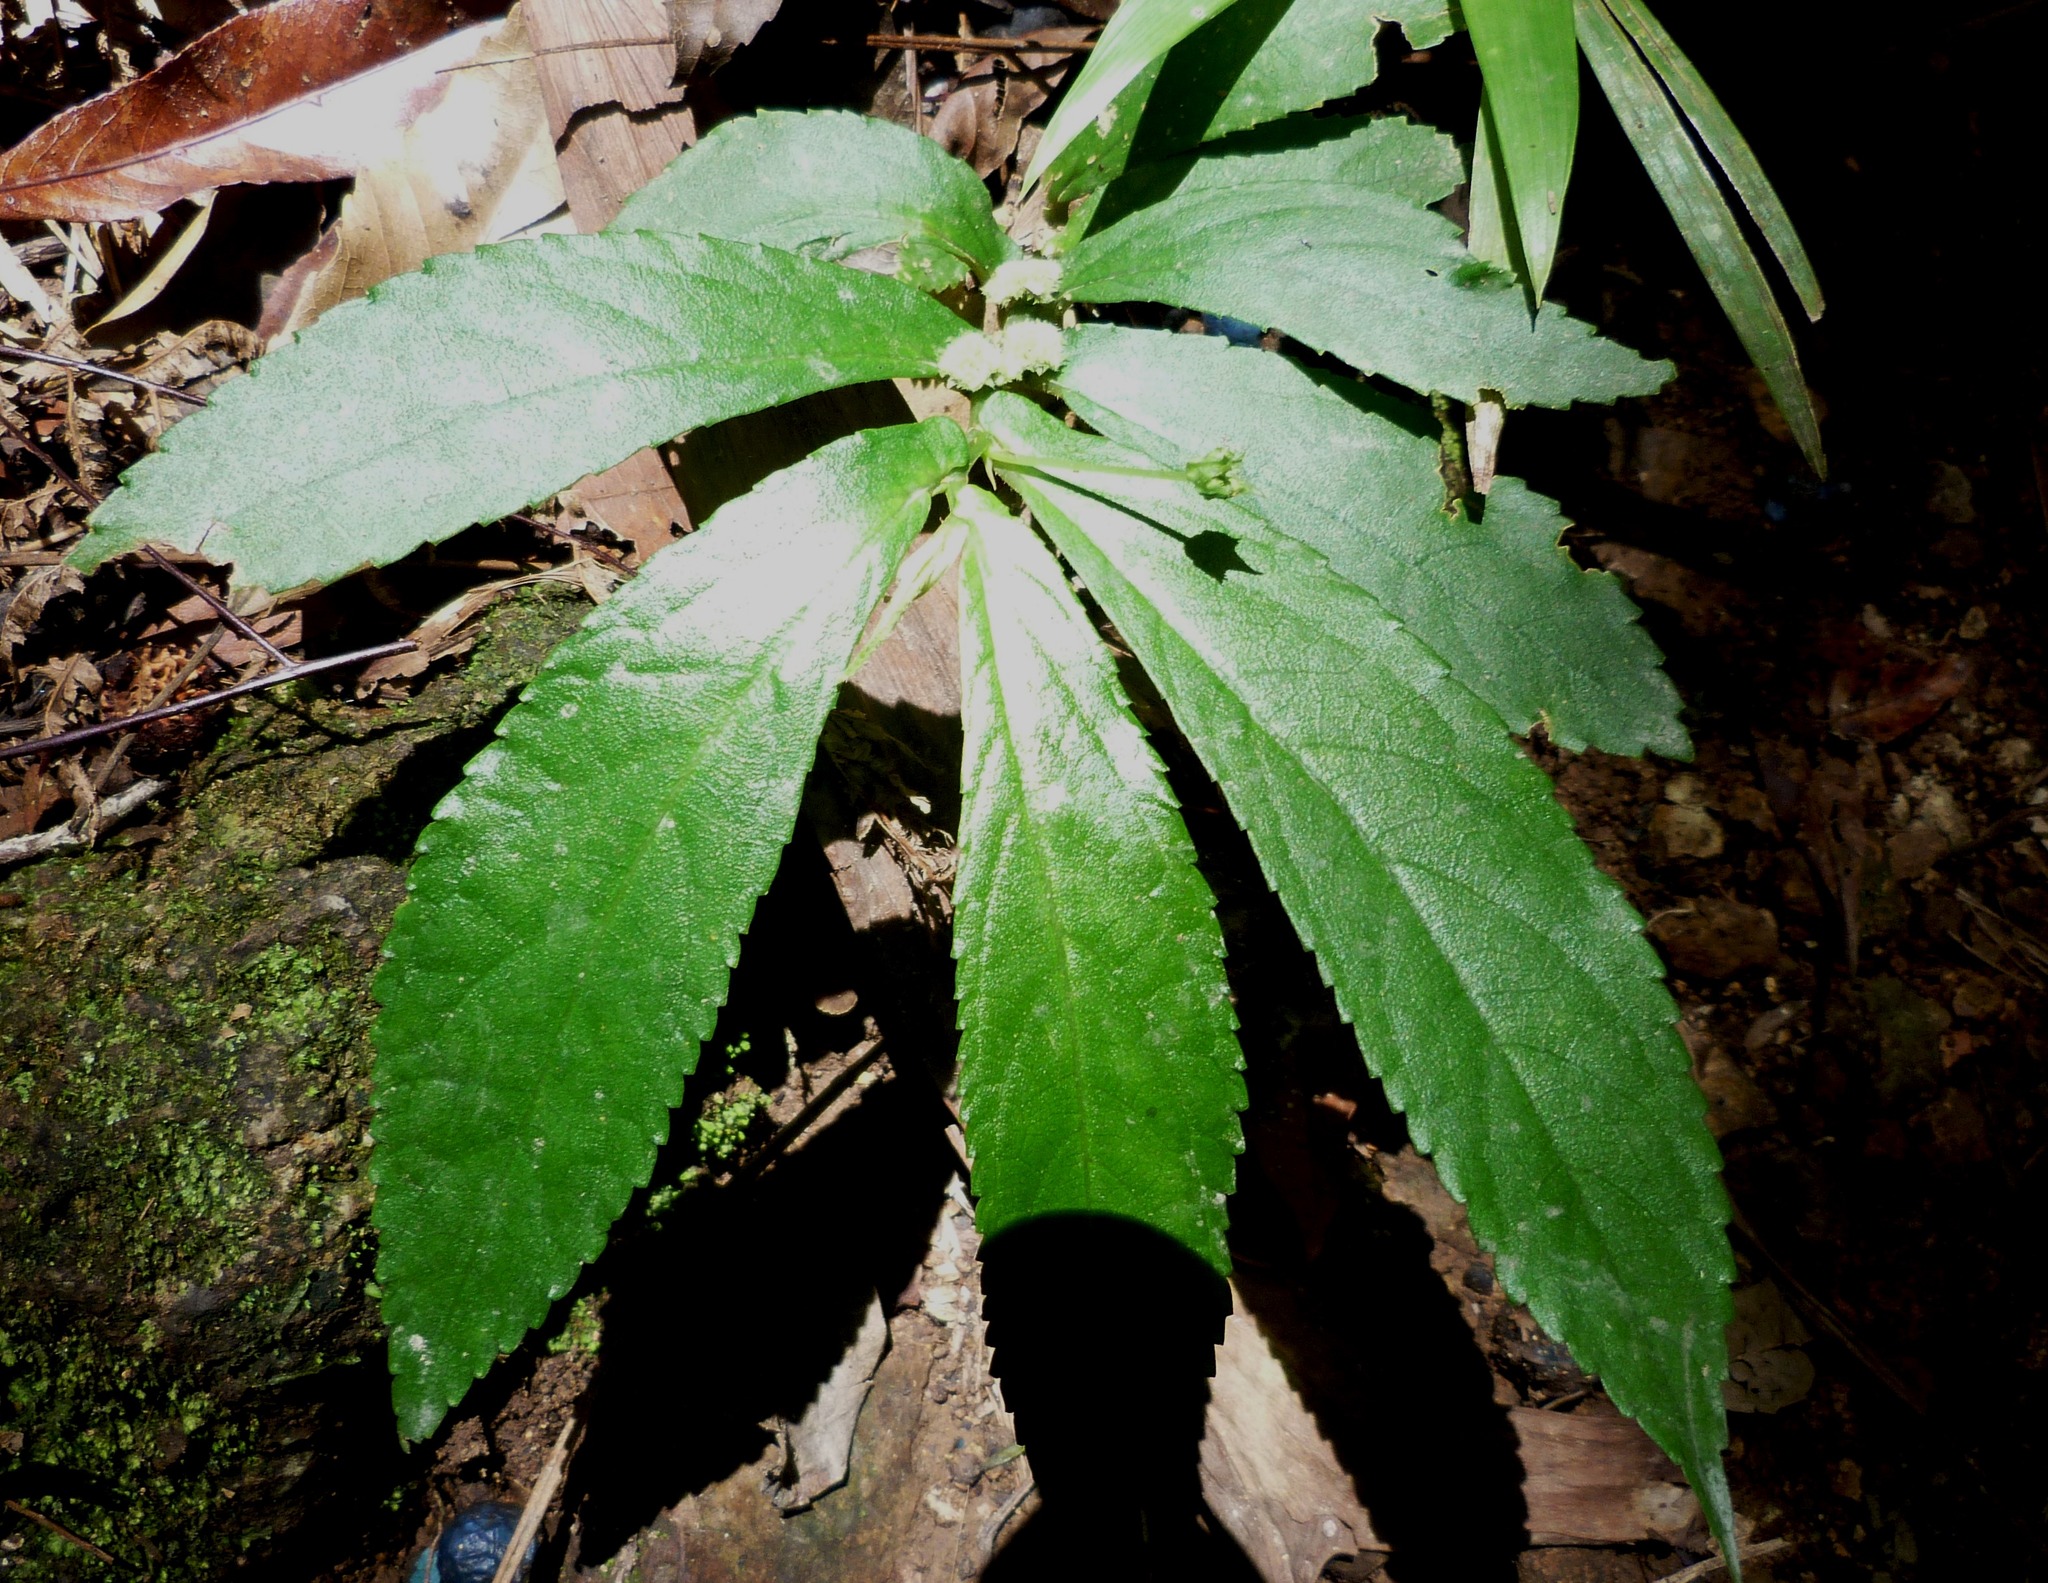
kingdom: Plantae
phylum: Tracheophyta
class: Magnoliopsida
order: Rosales
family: Urticaceae
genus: Elatostema
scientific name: Elatostema reticulatum
